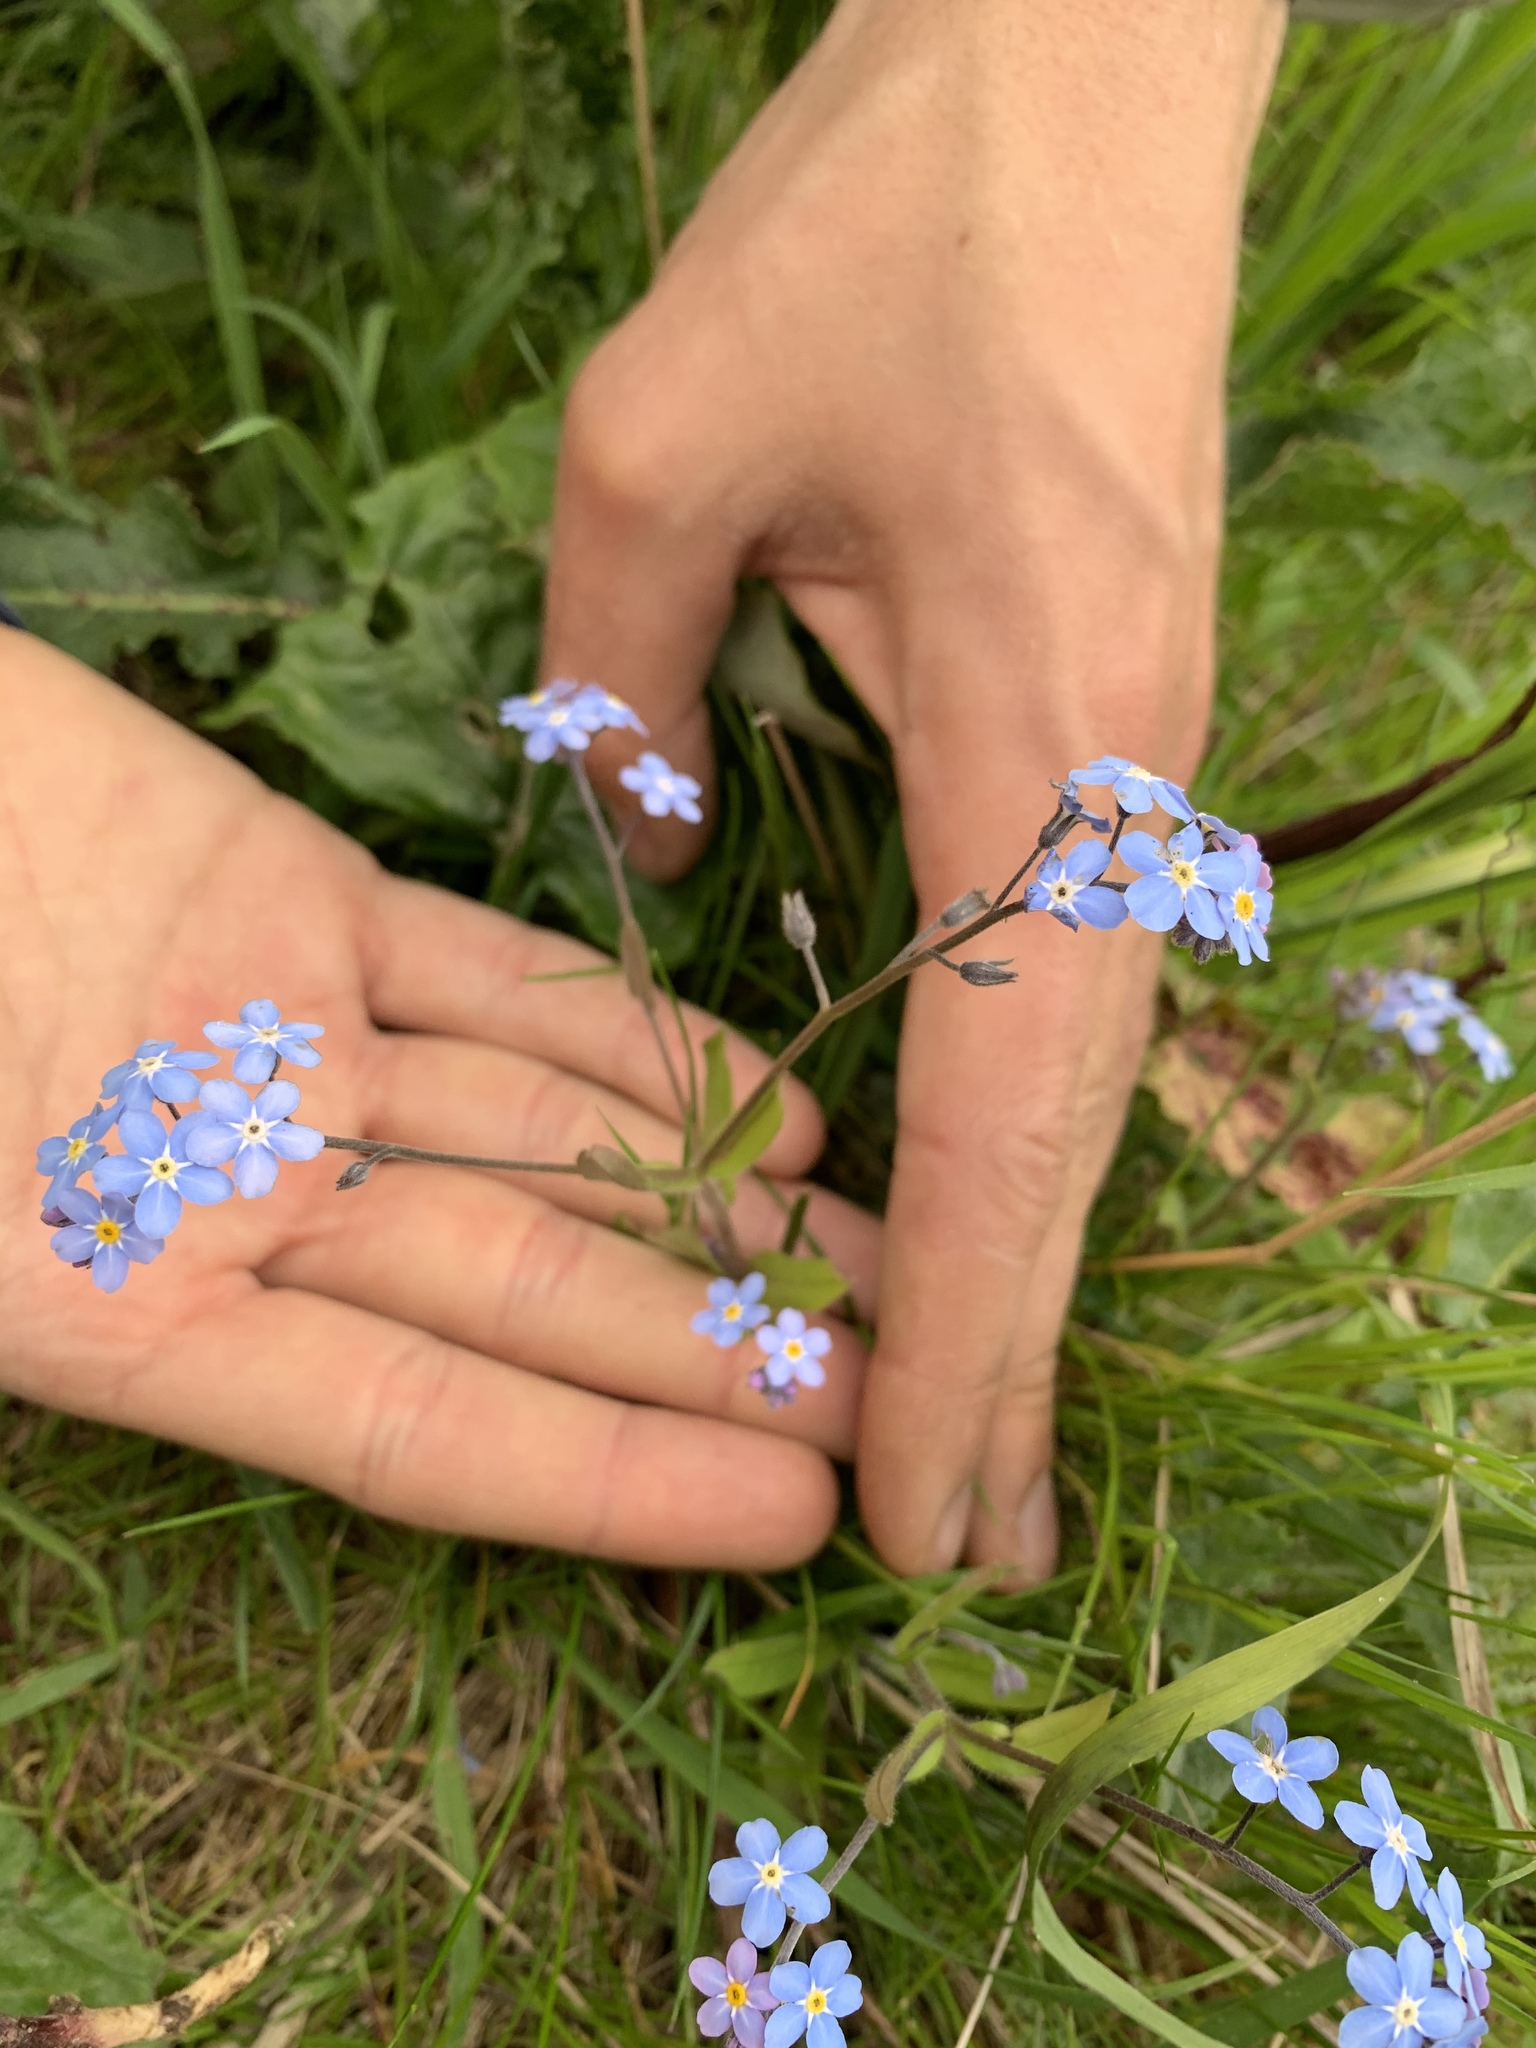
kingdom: Plantae
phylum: Tracheophyta
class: Magnoliopsida
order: Boraginales
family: Boraginaceae
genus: Myosotis
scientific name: Myosotis sylvatica
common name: Wood forget-me-not
